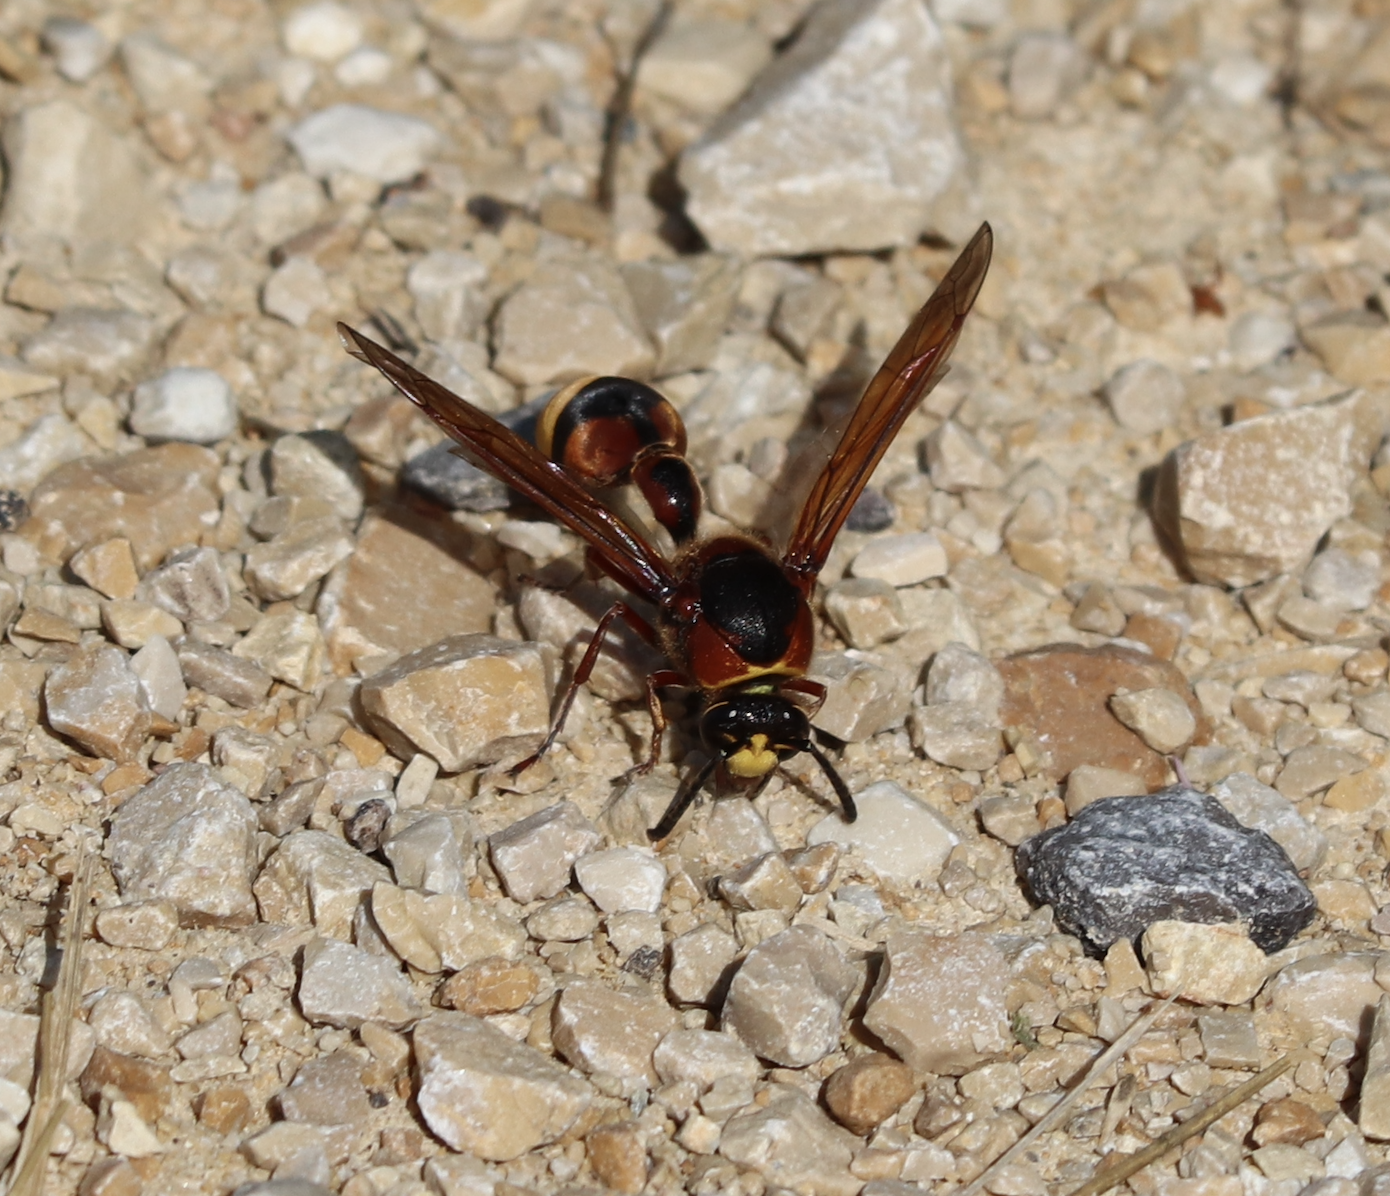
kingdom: Animalia
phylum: Arthropoda
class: Insecta
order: Hymenoptera
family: Eumenidae
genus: Delta
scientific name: Delta unguiculatum
